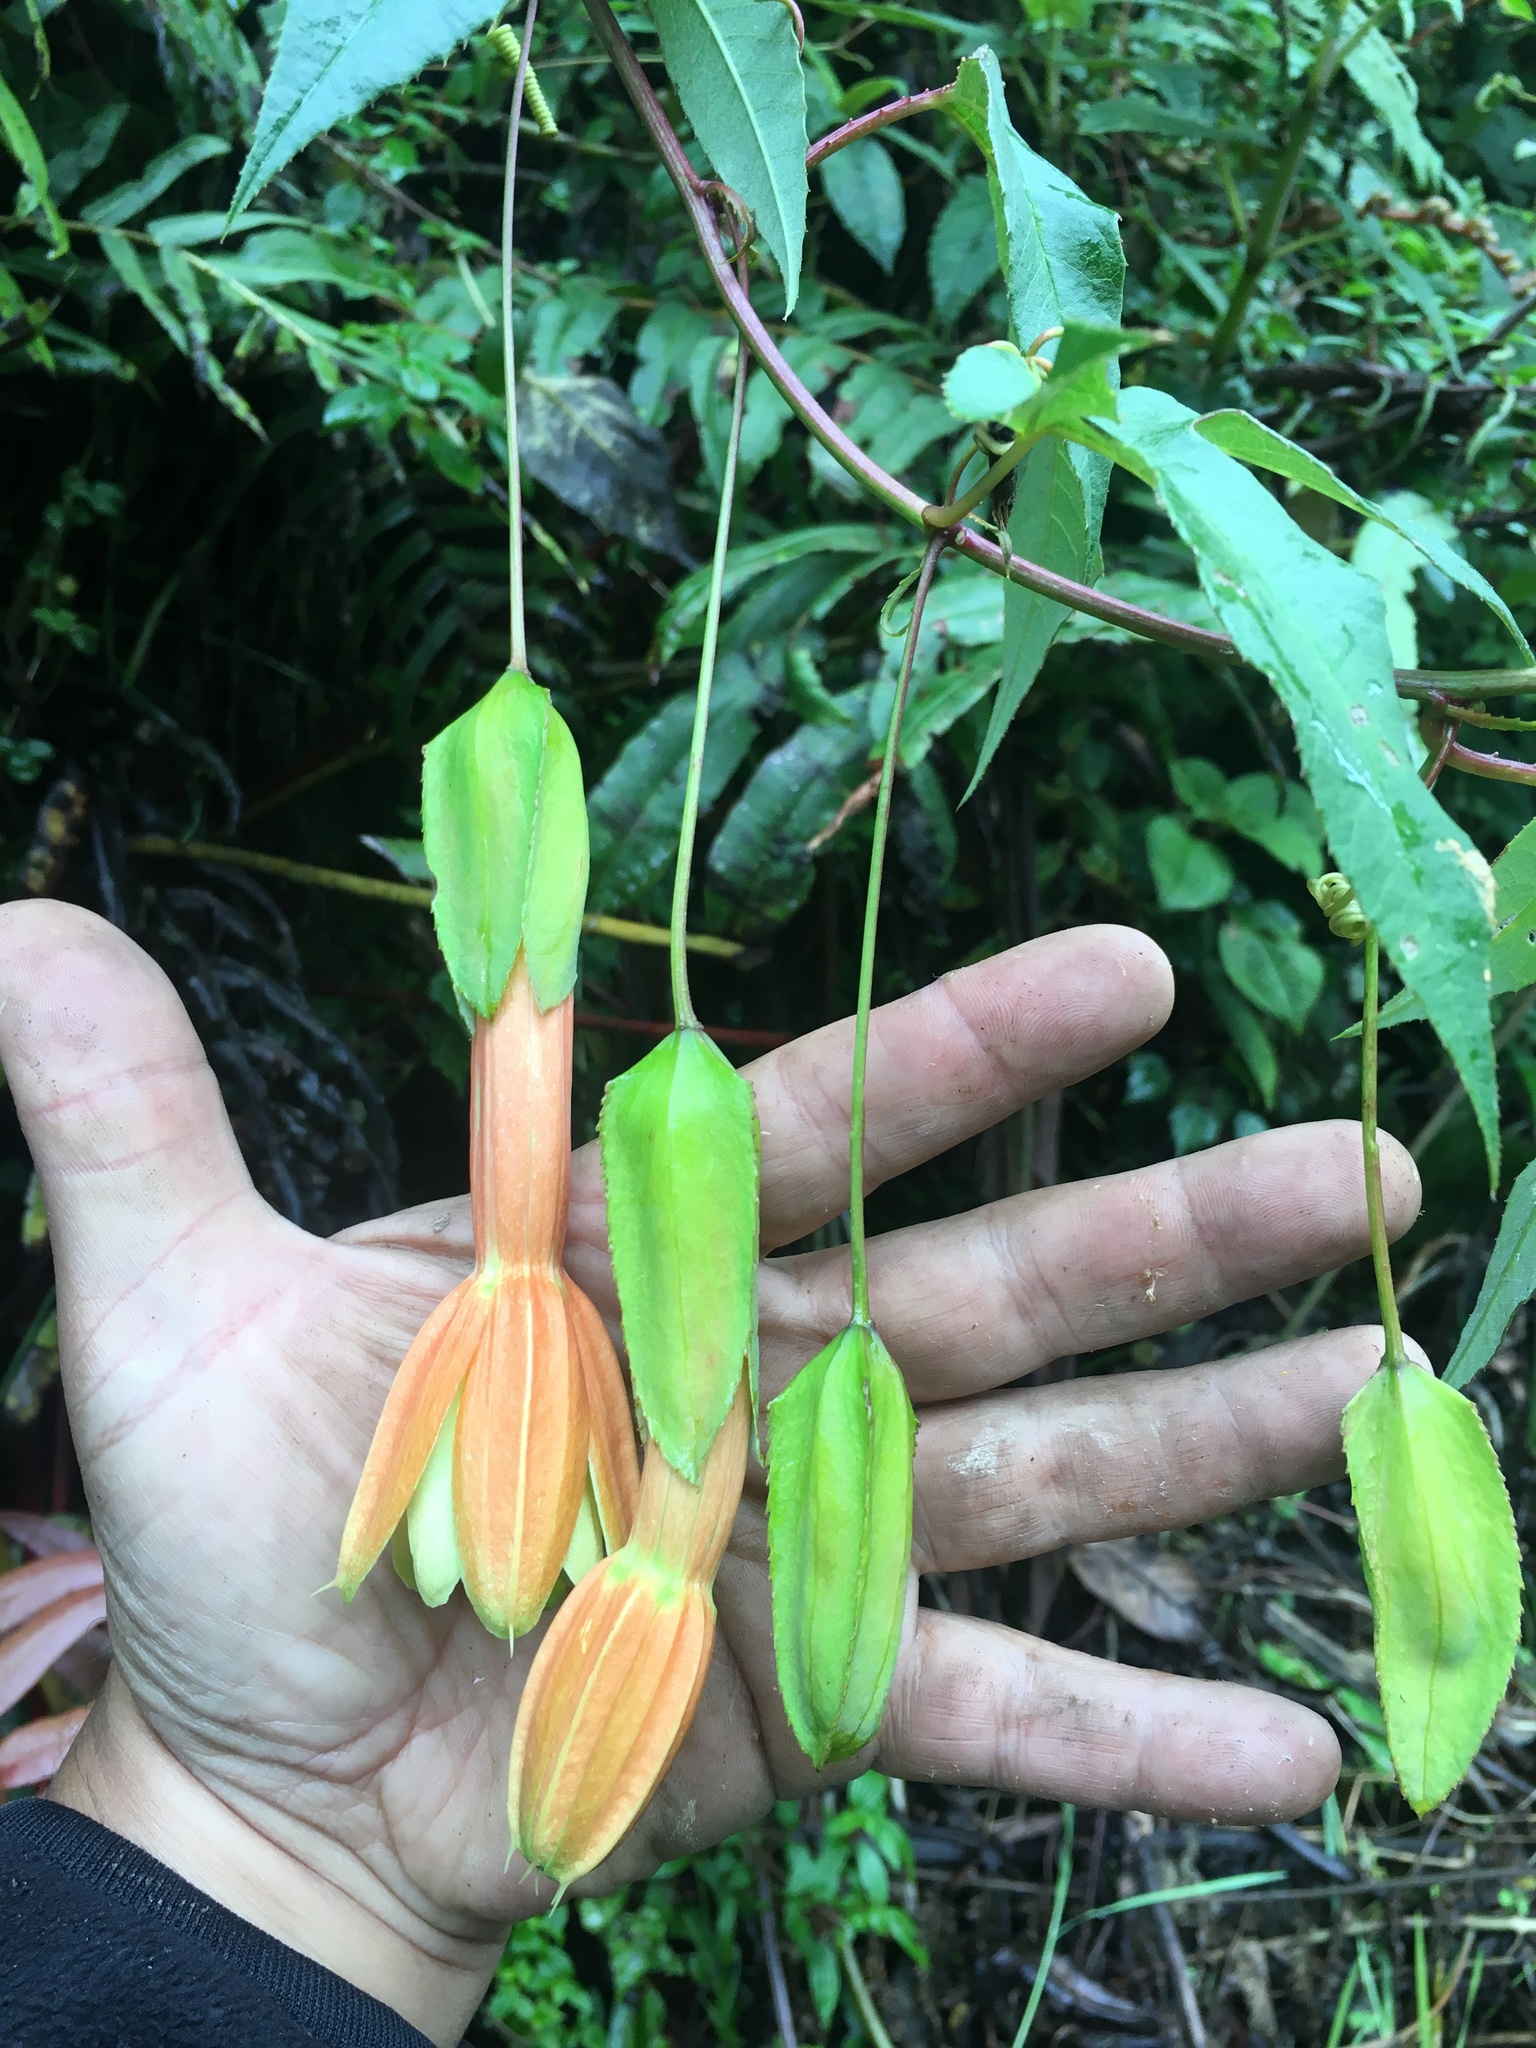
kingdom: Plantae
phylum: Tracheophyta
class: Magnoliopsida
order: Malpighiales
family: Passifloraceae
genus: Passiflora
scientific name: Passiflora linearistipula
